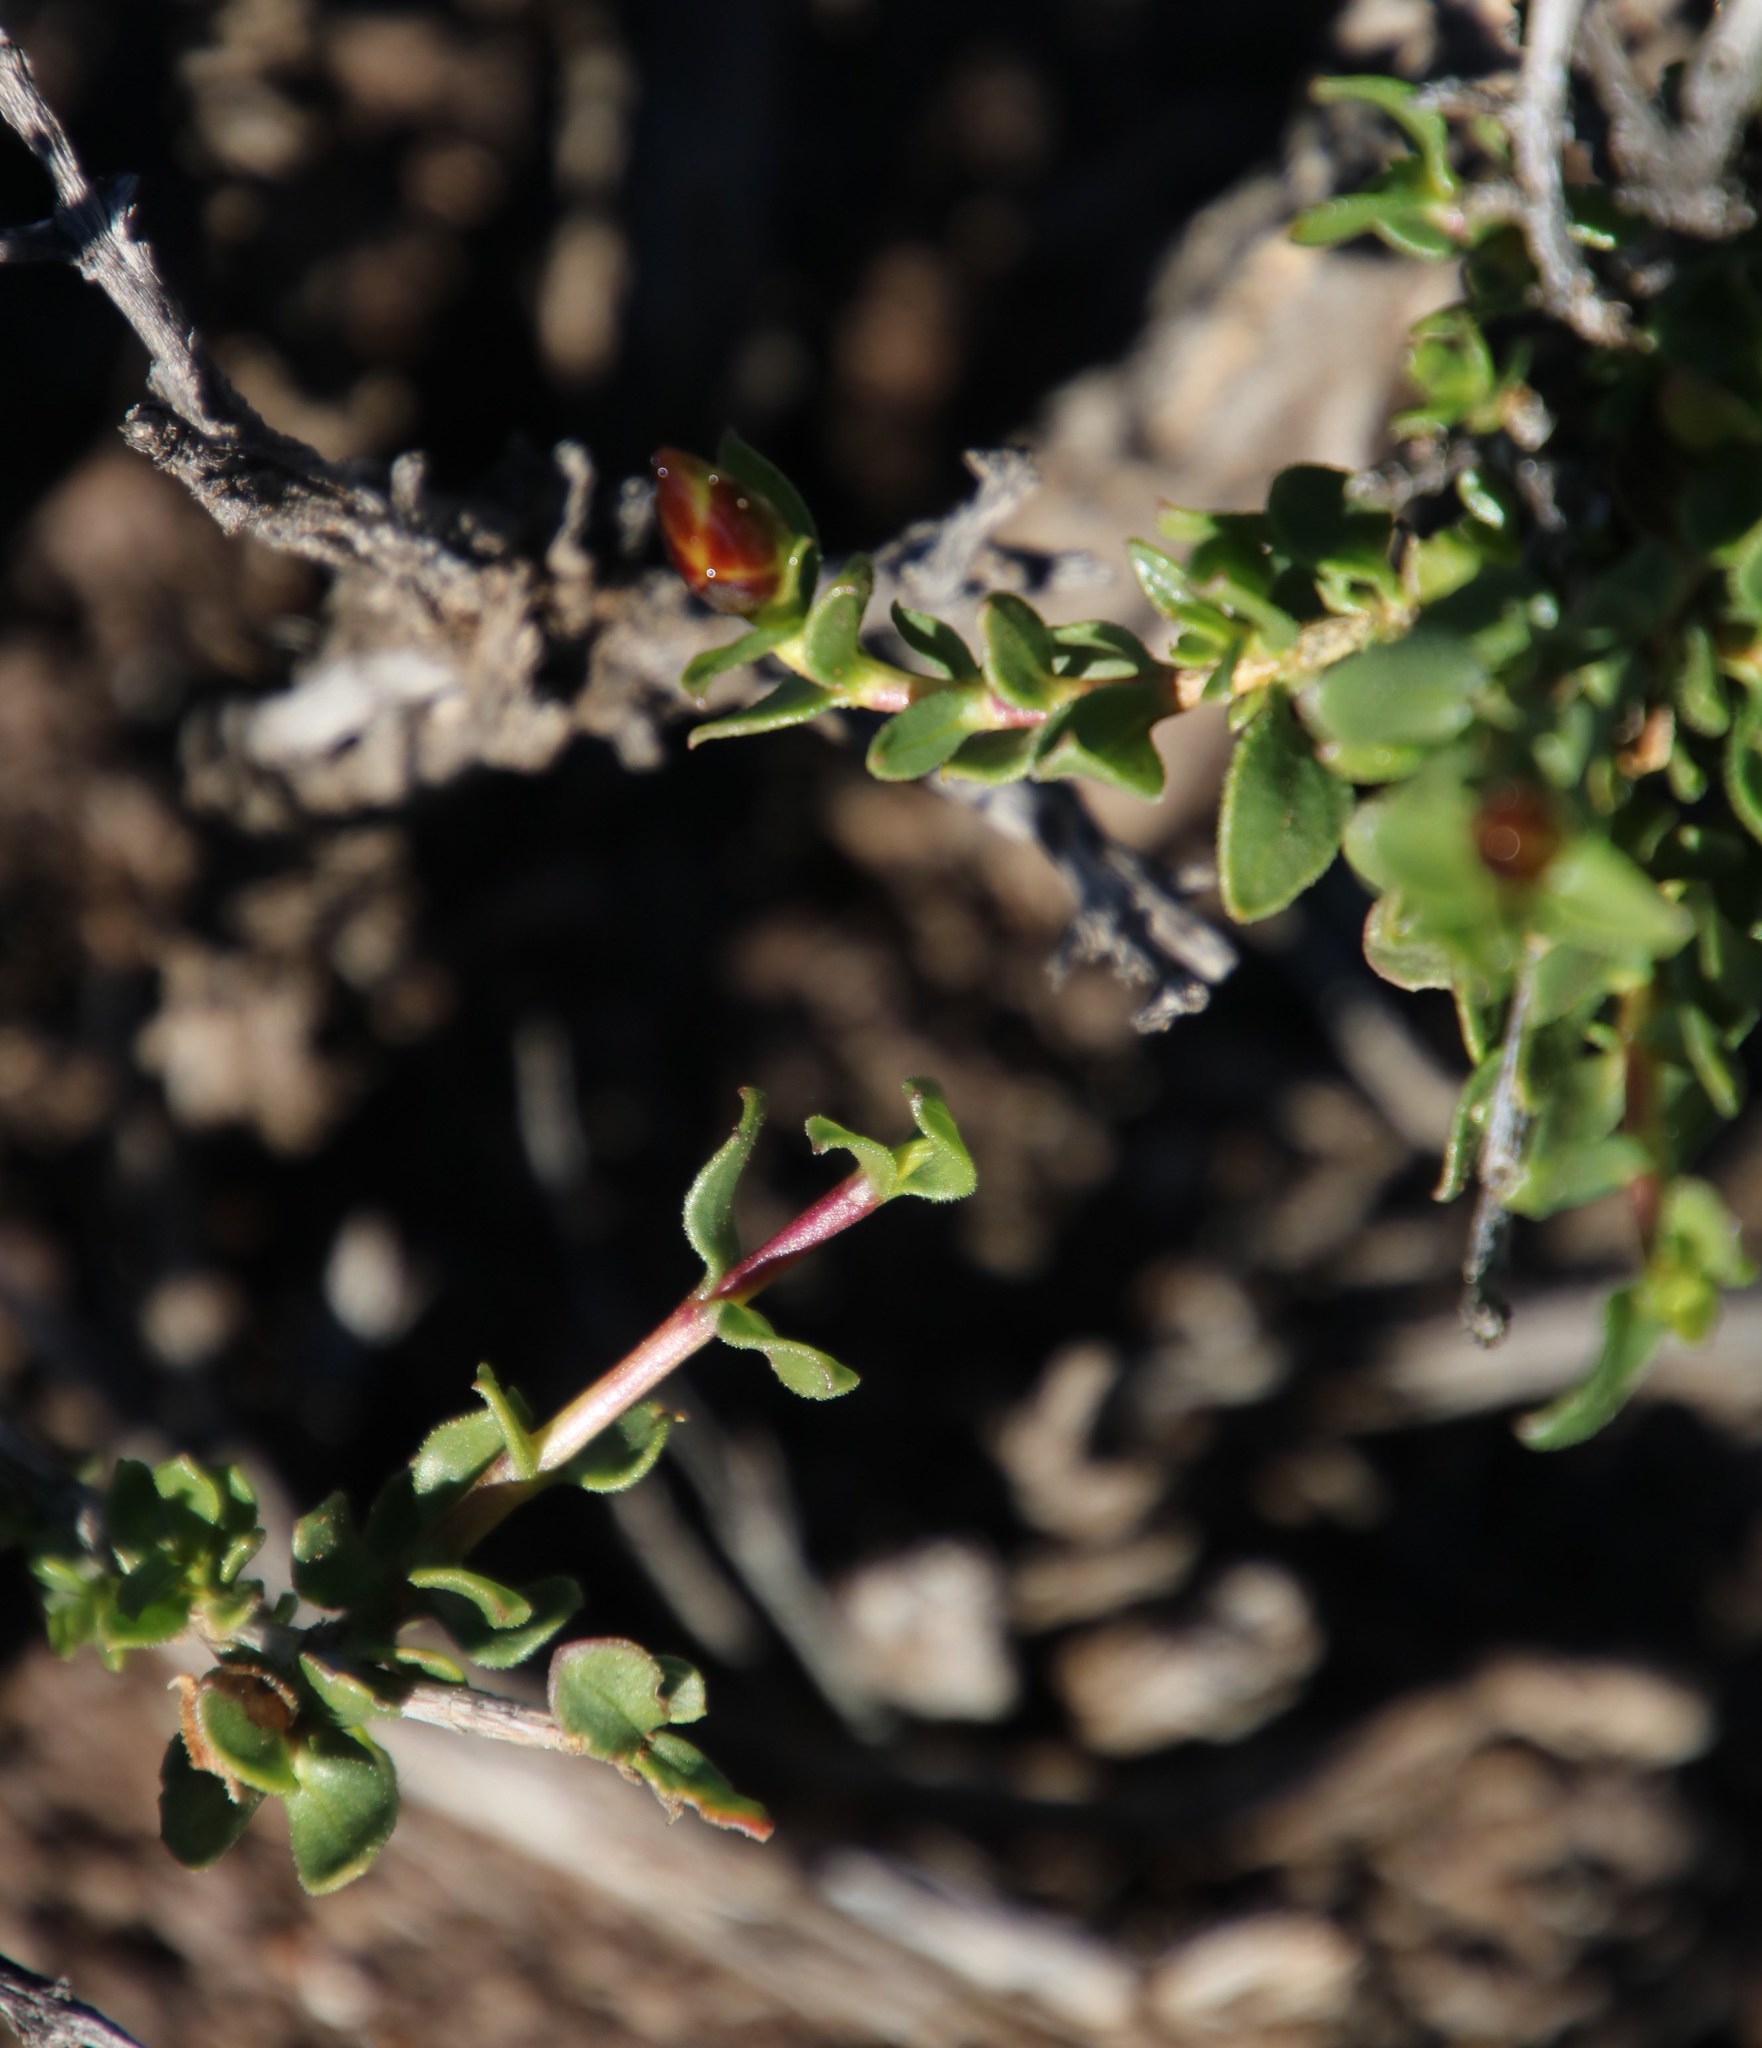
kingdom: Plantae
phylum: Tracheophyta
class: Magnoliopsida
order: Asterales
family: Asteraceae
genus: Pteronia
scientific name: Pteronia adenocarpa
